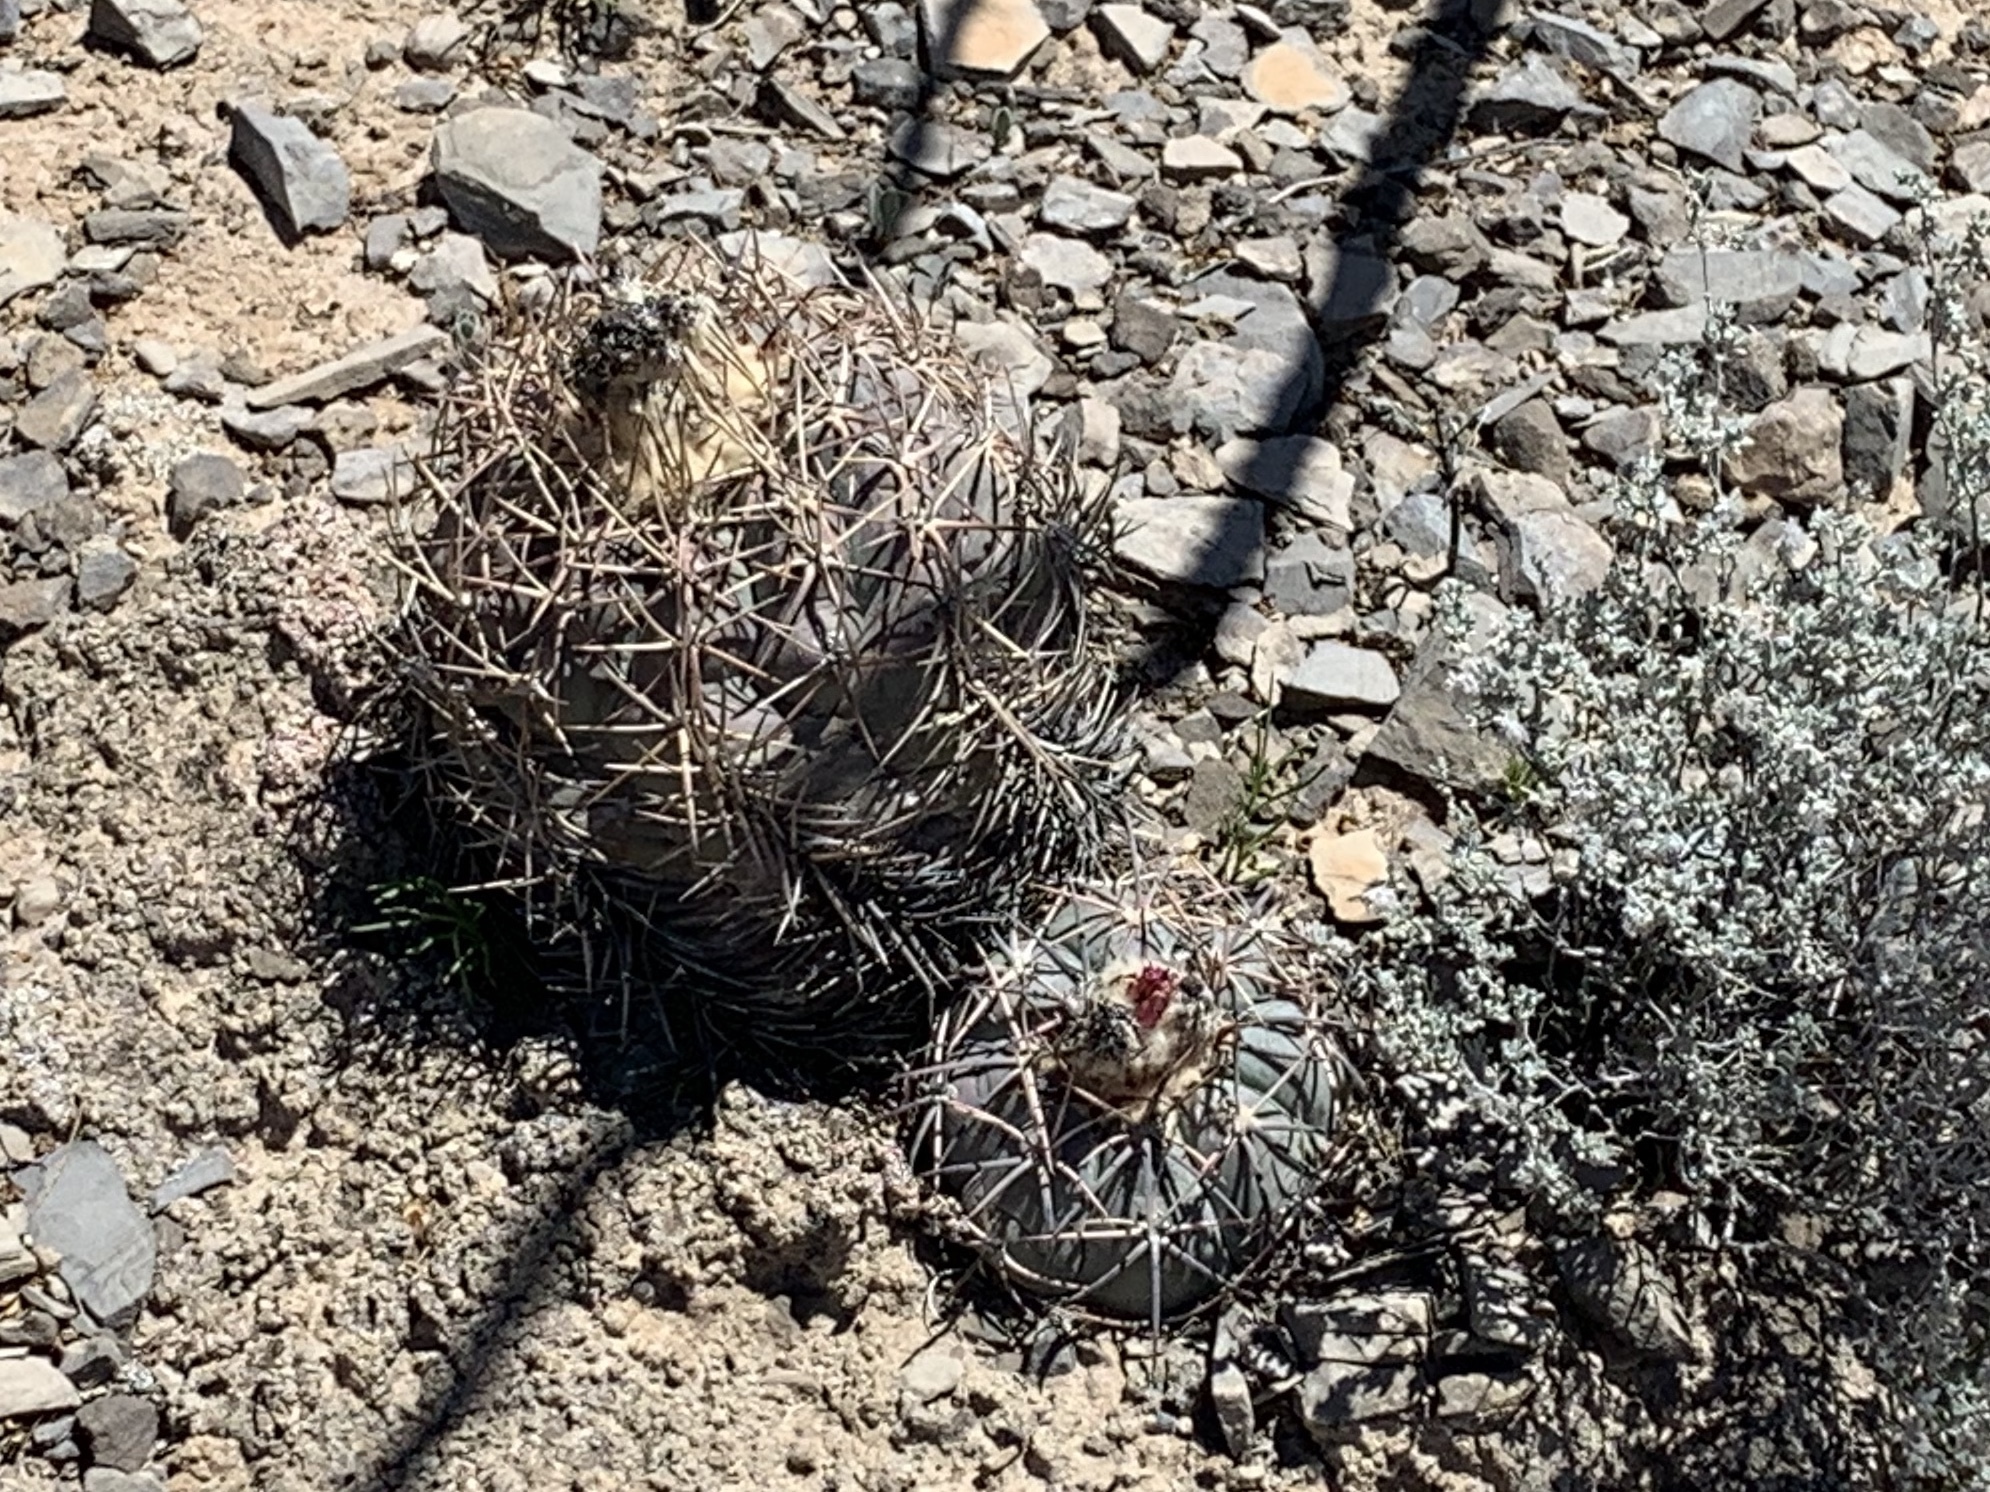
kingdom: Plantae
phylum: Tracheophyta
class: Magnoliopsida
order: Caryophyllales
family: Cactaceae
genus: Echinocactus
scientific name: Echinocactus horizonthalonius
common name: Devilshead
